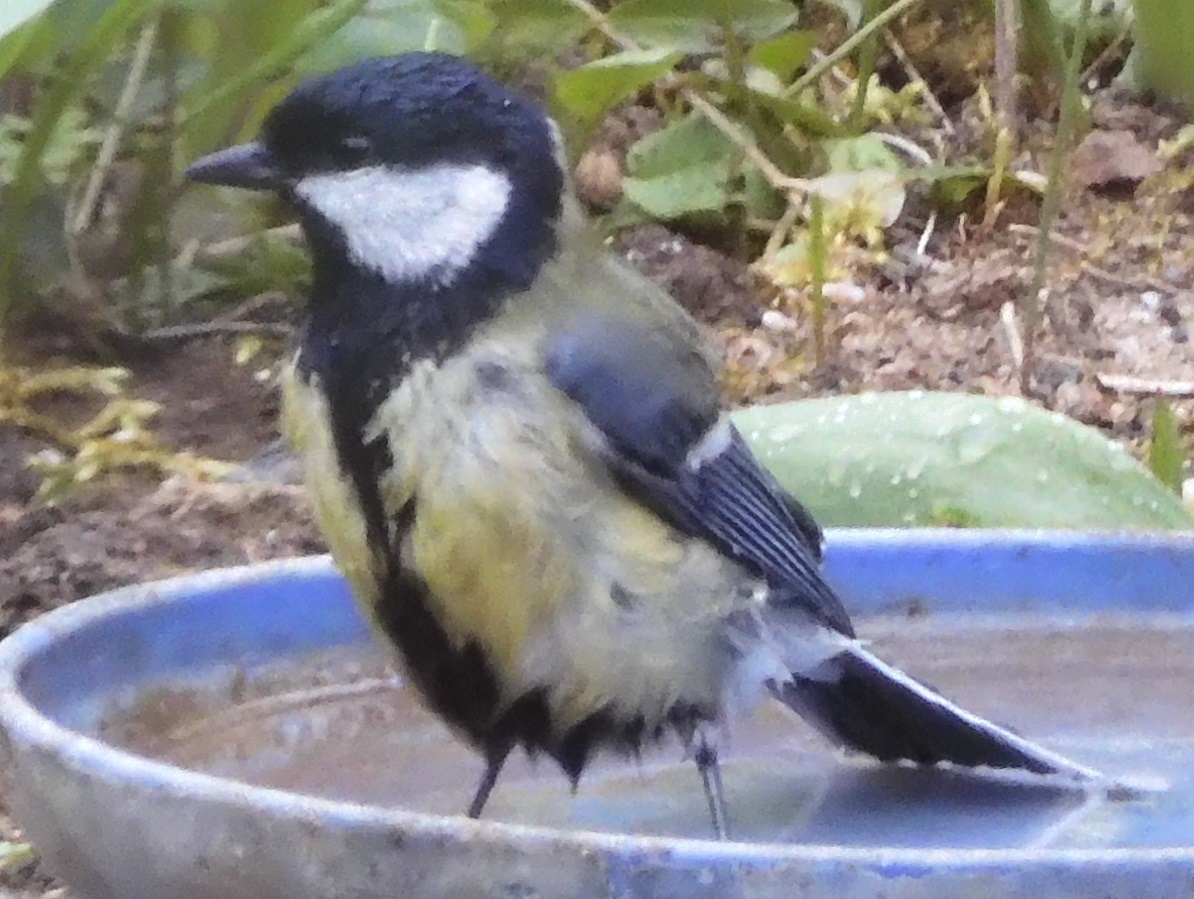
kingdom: Animalia
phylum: Chordata
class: Aves
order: Passeriformes
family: Paridae
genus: Parus
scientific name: Parus major
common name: Great tit
